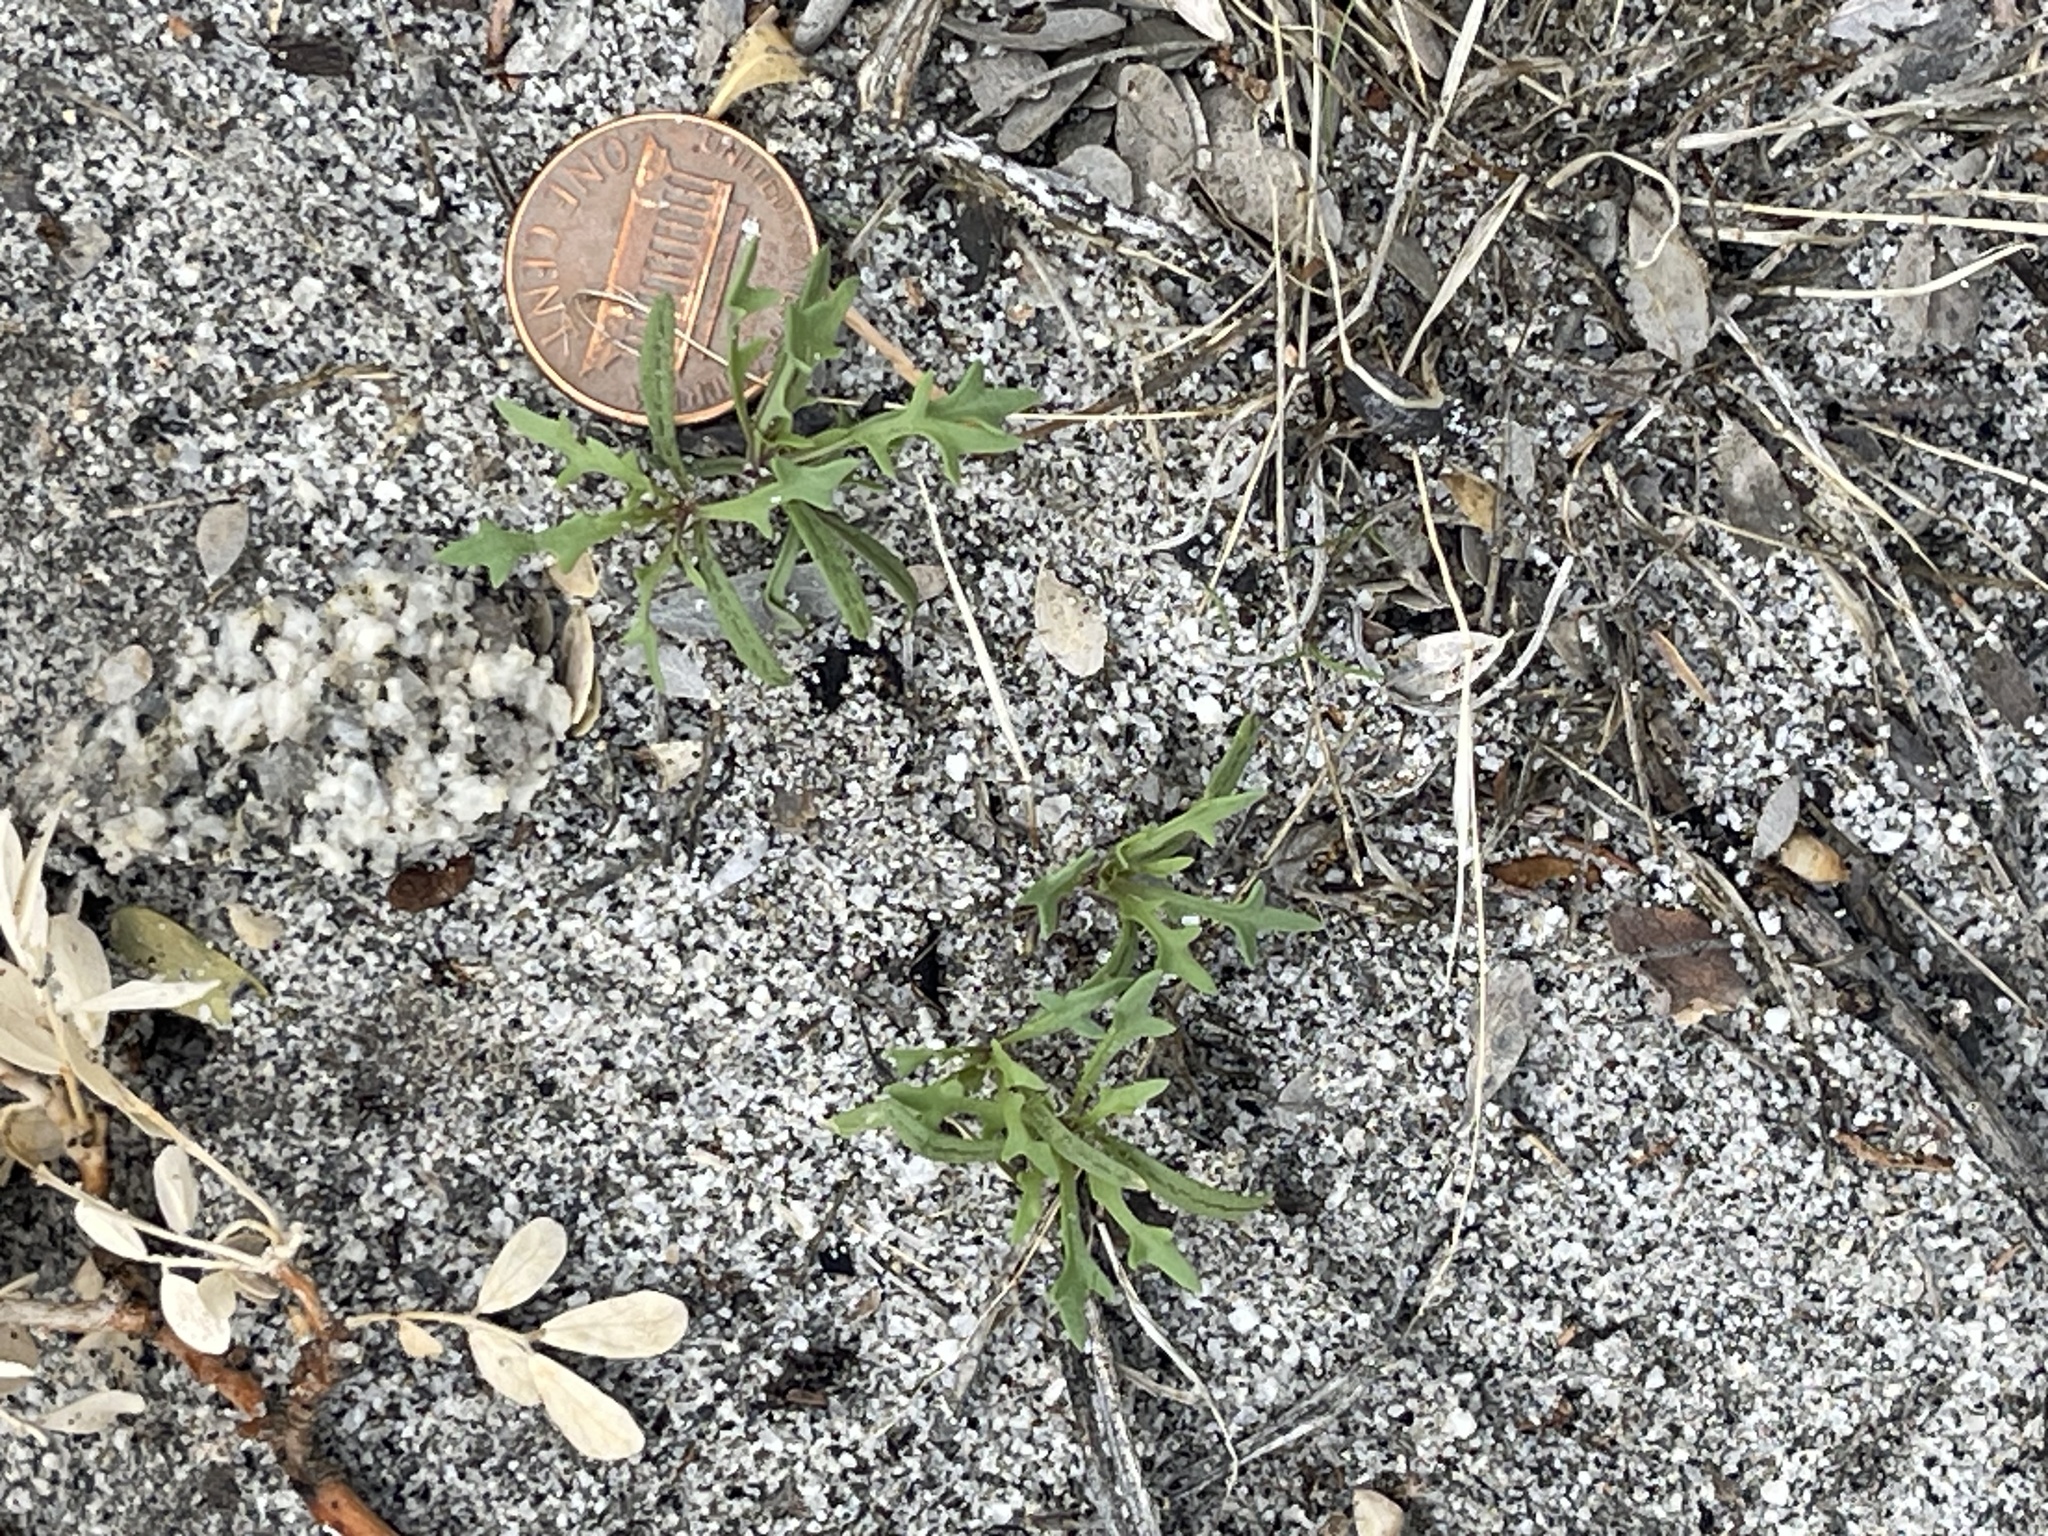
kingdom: Plantae
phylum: Tracheophyta
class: Magnoliopsida
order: Brassicales
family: Brassicaceae
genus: Streptanthus
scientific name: Streptanthus longirostris
